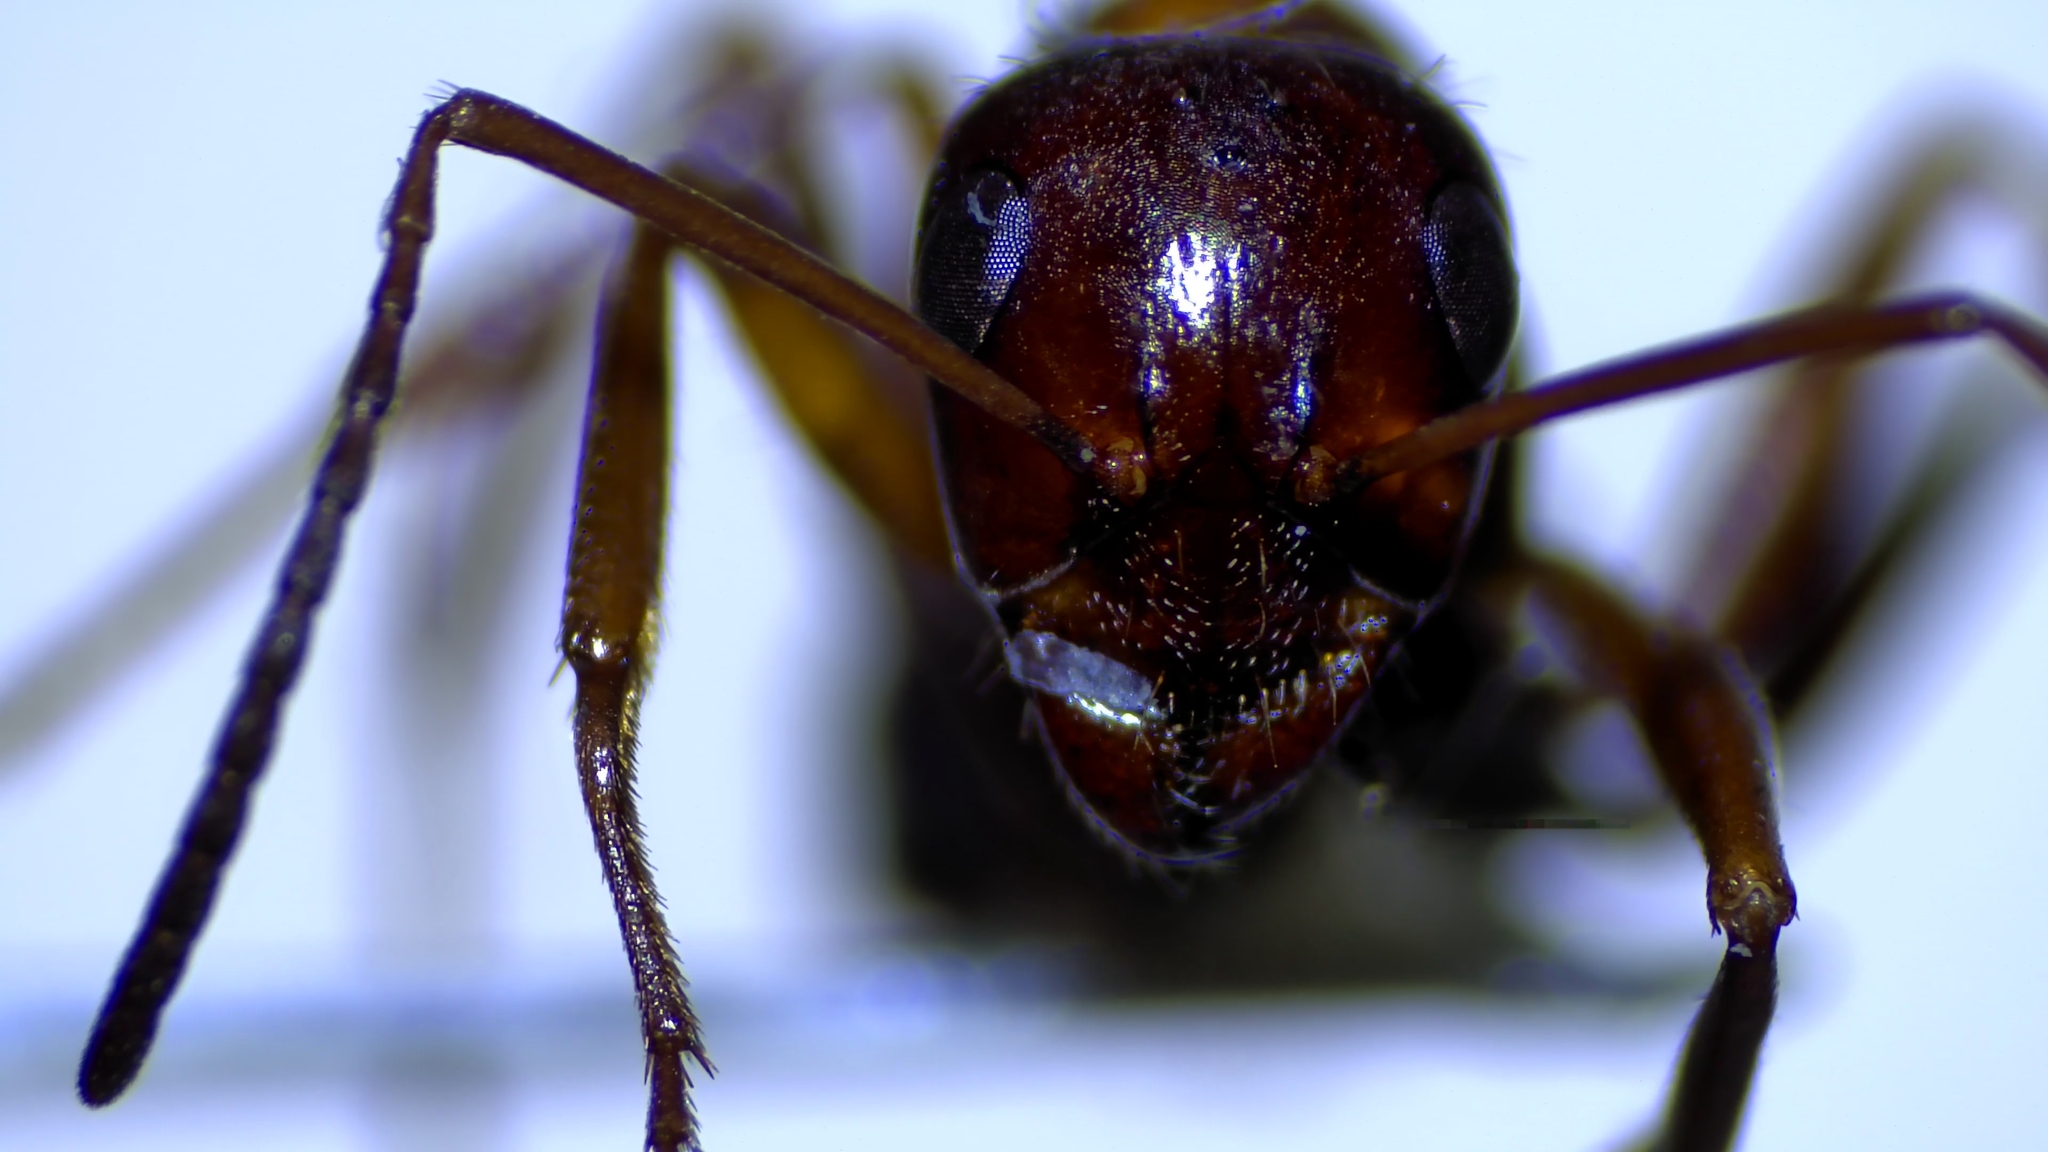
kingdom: Animalia
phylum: Arthropoda
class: Insecta
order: Hymenoptera
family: Formicidae
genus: Formica
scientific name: Formica incerta
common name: Uncertain field ant
